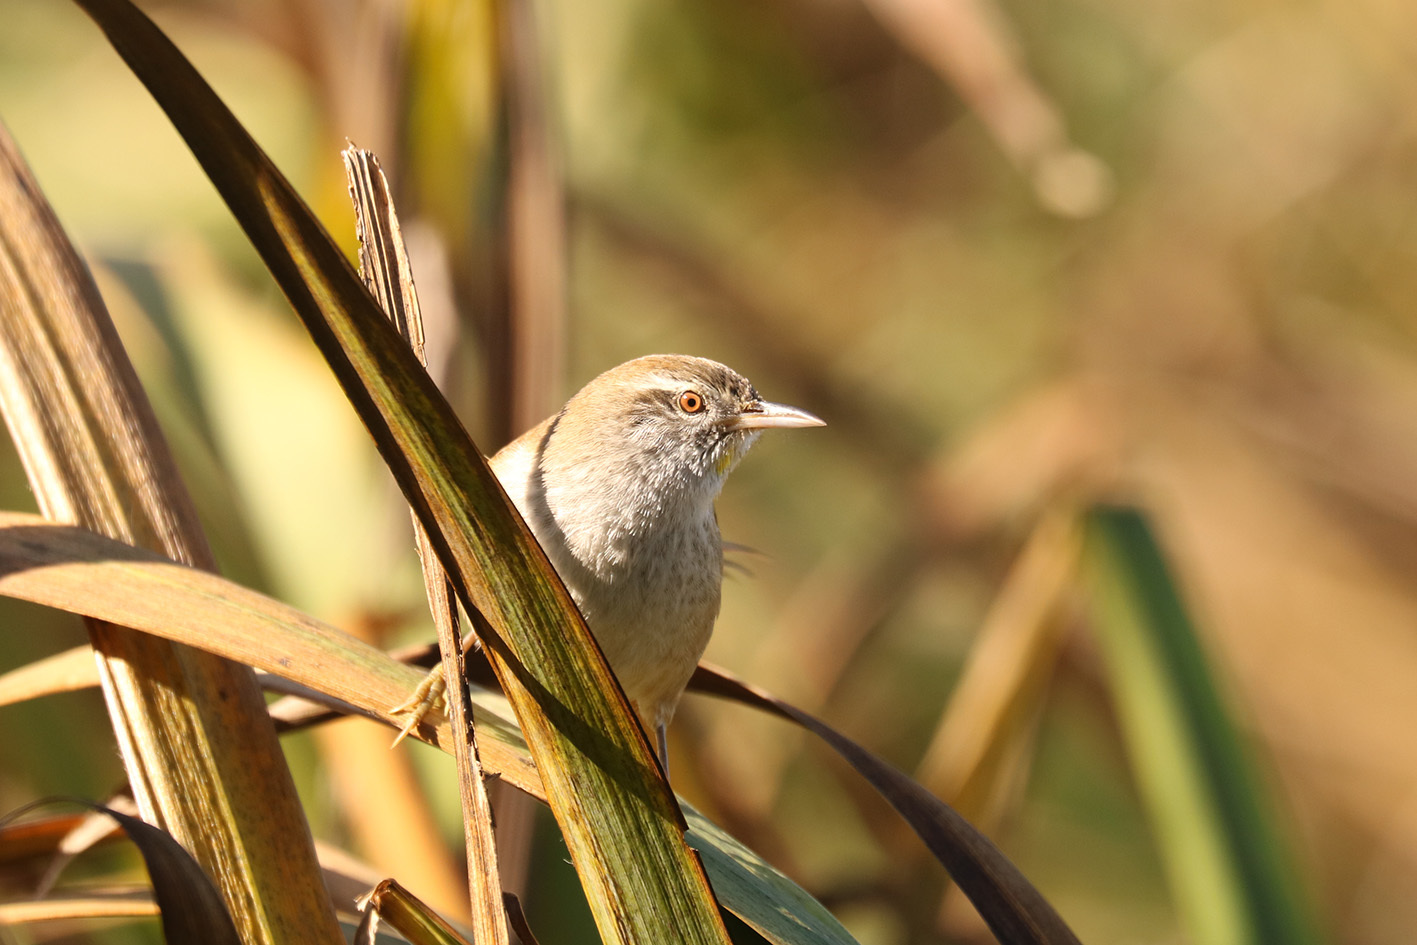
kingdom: Animalia
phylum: Chordata
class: Aves
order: Passeriformes
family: Furnariidae
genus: Cranioleuca
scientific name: Cranioleuca sulphurifera
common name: Sulphur-bearded spinetail
